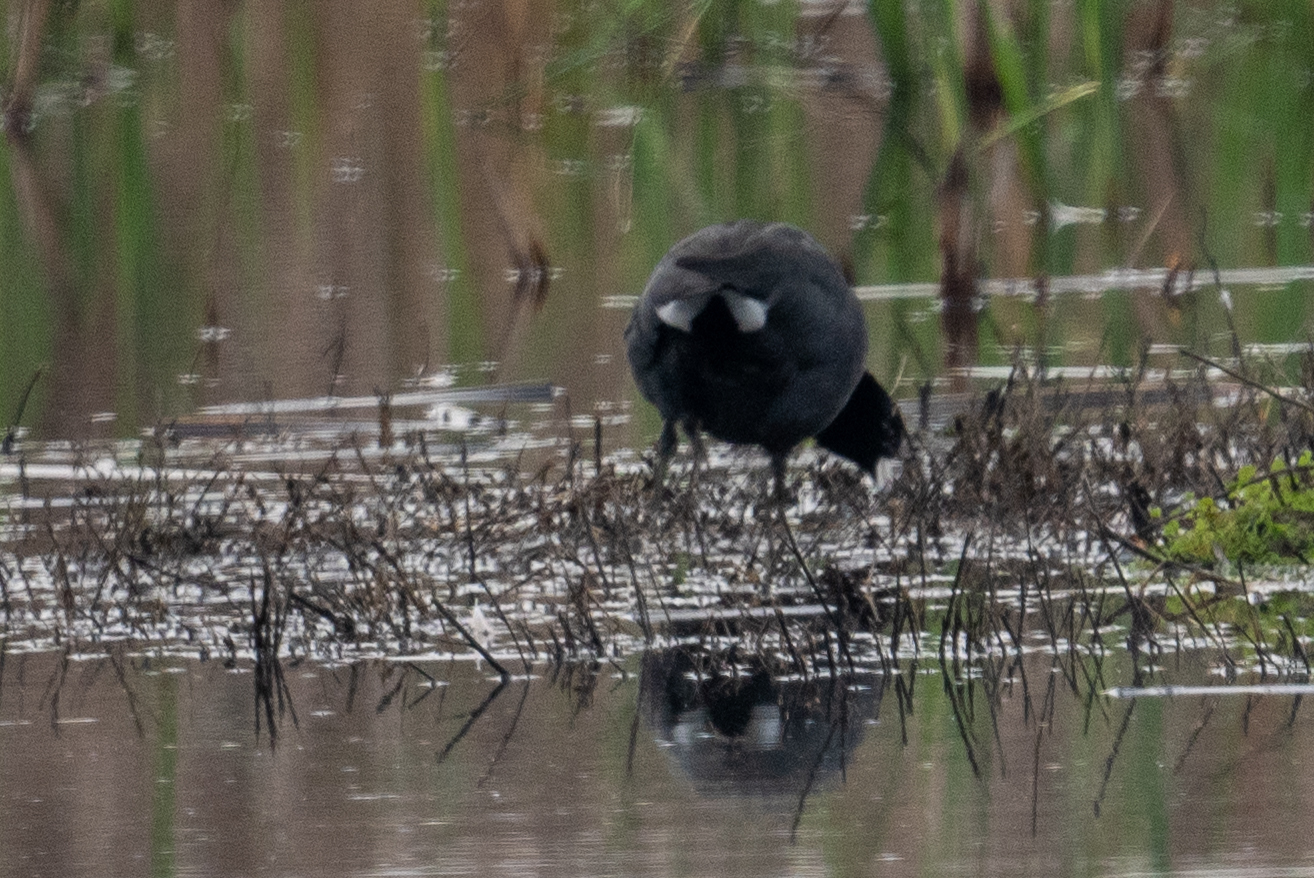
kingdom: Animalia
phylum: Chordata
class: Aves
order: Gruiformes
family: Rallidae
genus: Fulica
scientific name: Fulica americana
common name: American coot
